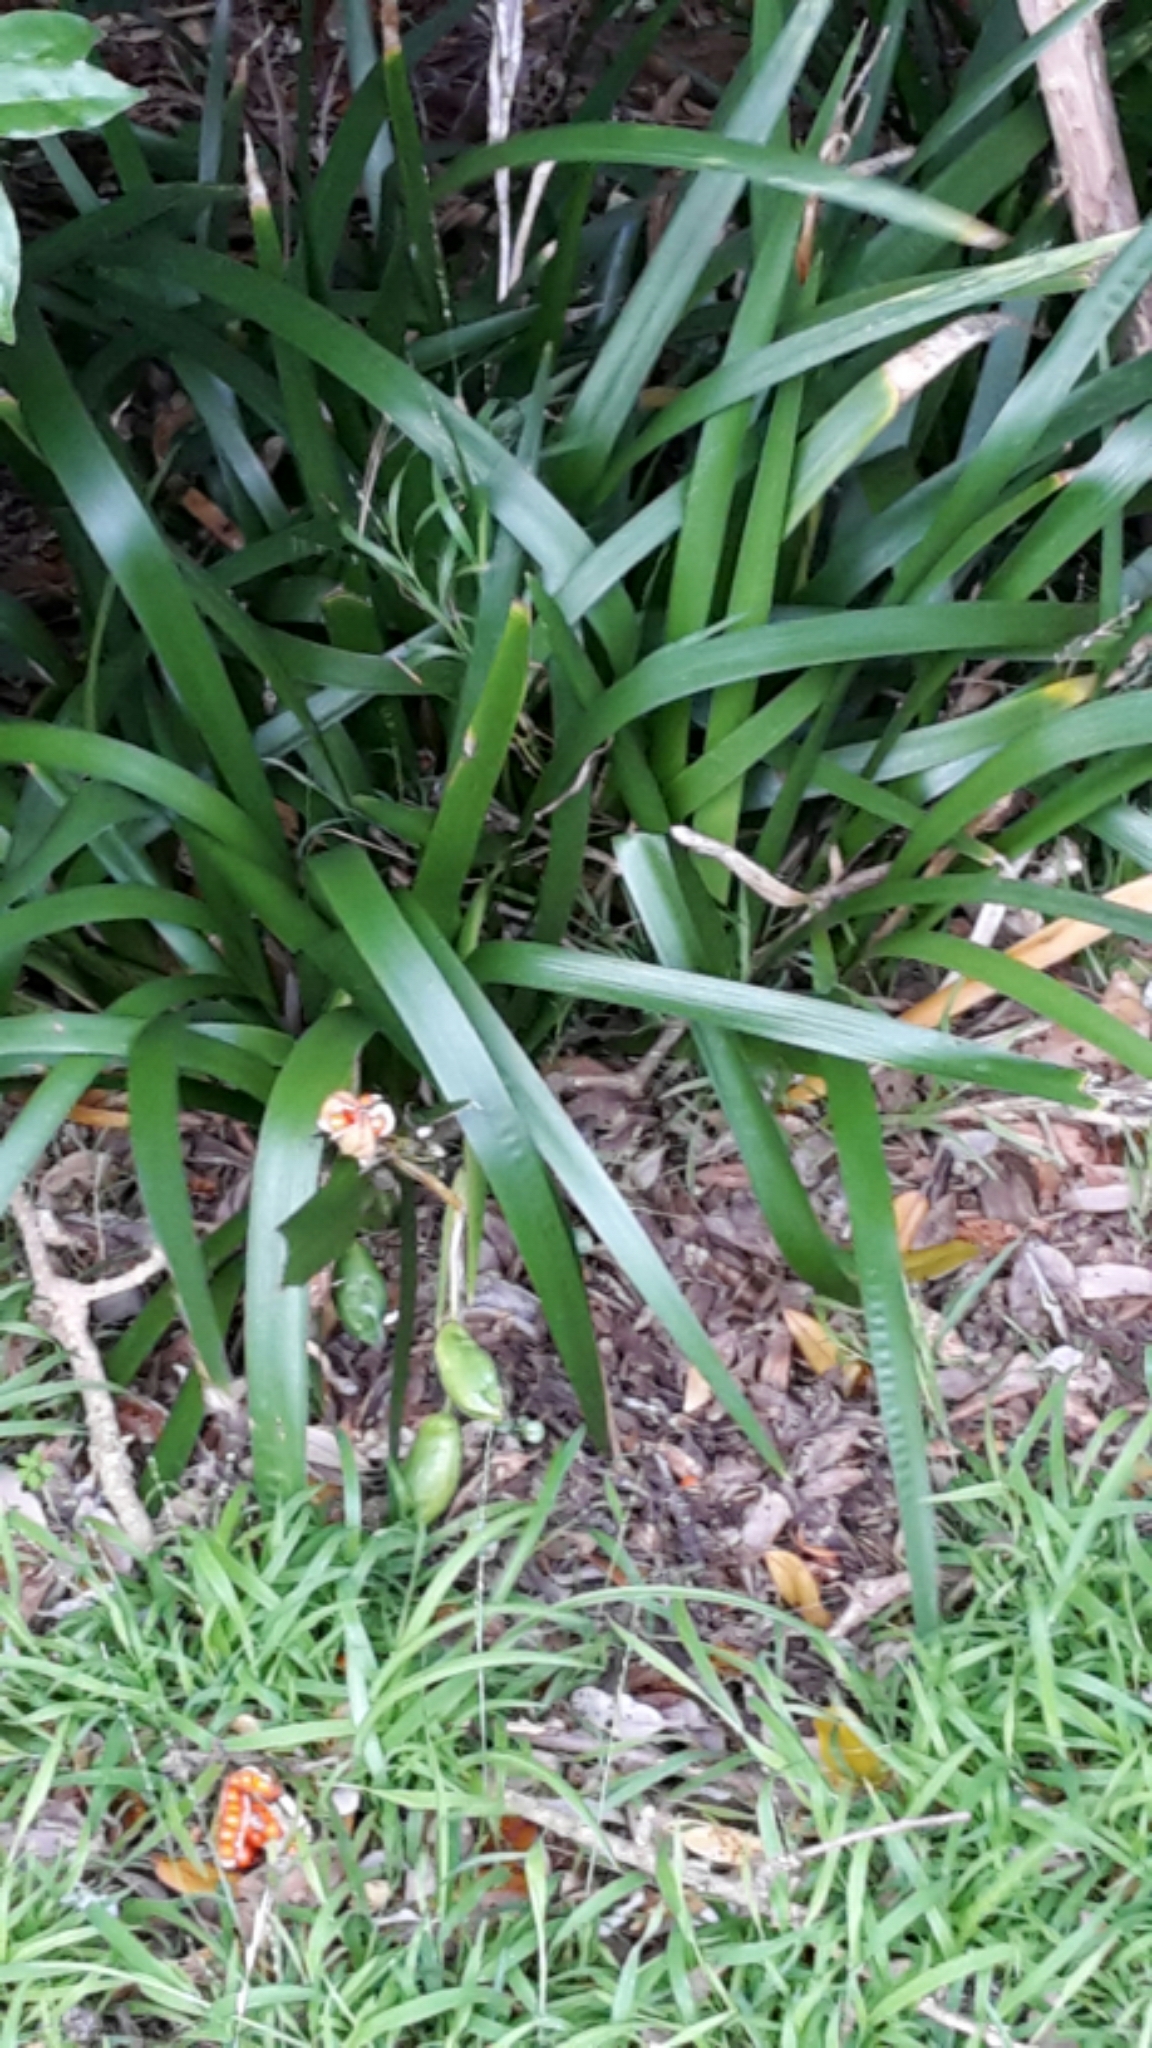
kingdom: Plantae
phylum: Tracheophyta
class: Liliopsida
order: Asparagales
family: Iridaceae
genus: Iris
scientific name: Iris foetidissima
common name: Stinking iris
